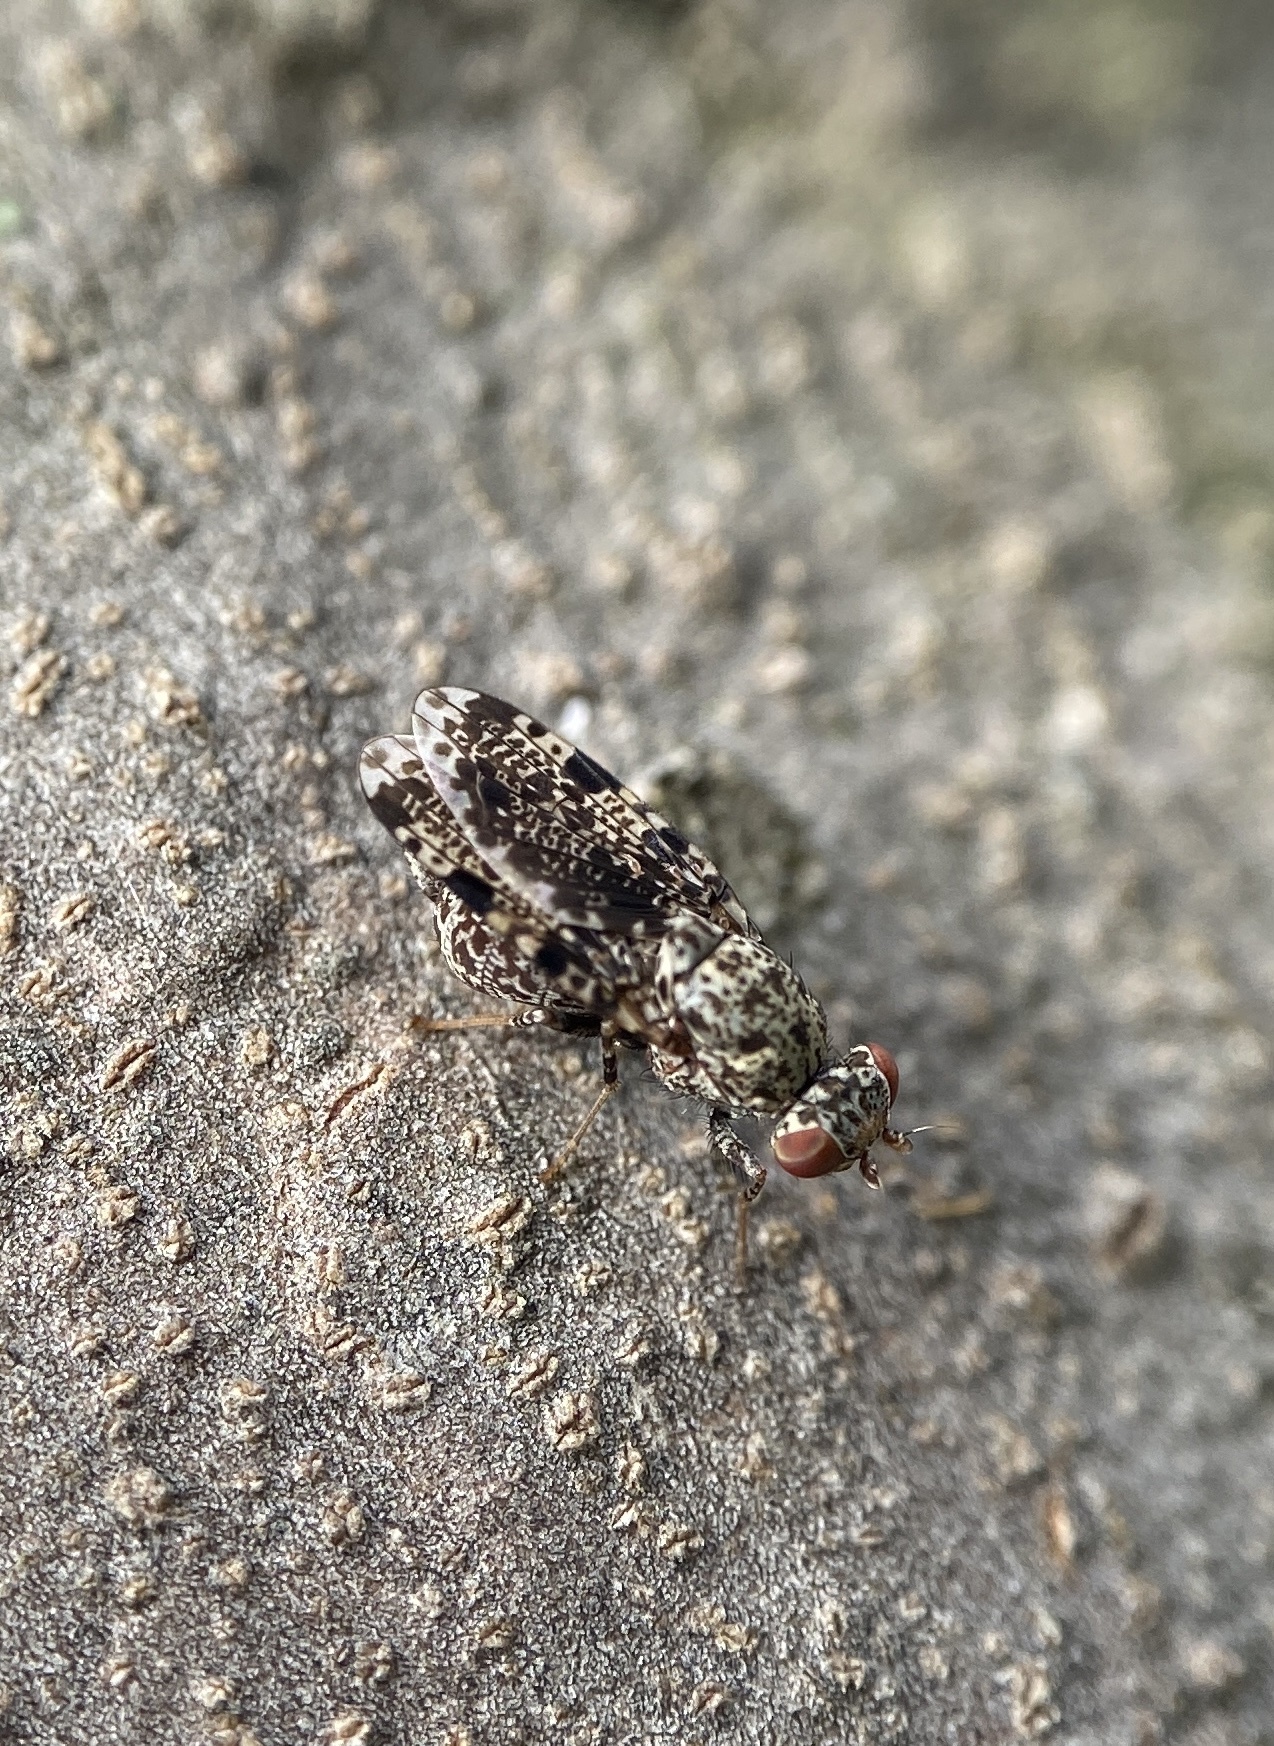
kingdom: Animalia
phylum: Arthropoda
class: Insecta
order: Diptera
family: Ulidiidae
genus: Callopistromyia
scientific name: Callopistromyia annulipes
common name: Peacock fly
